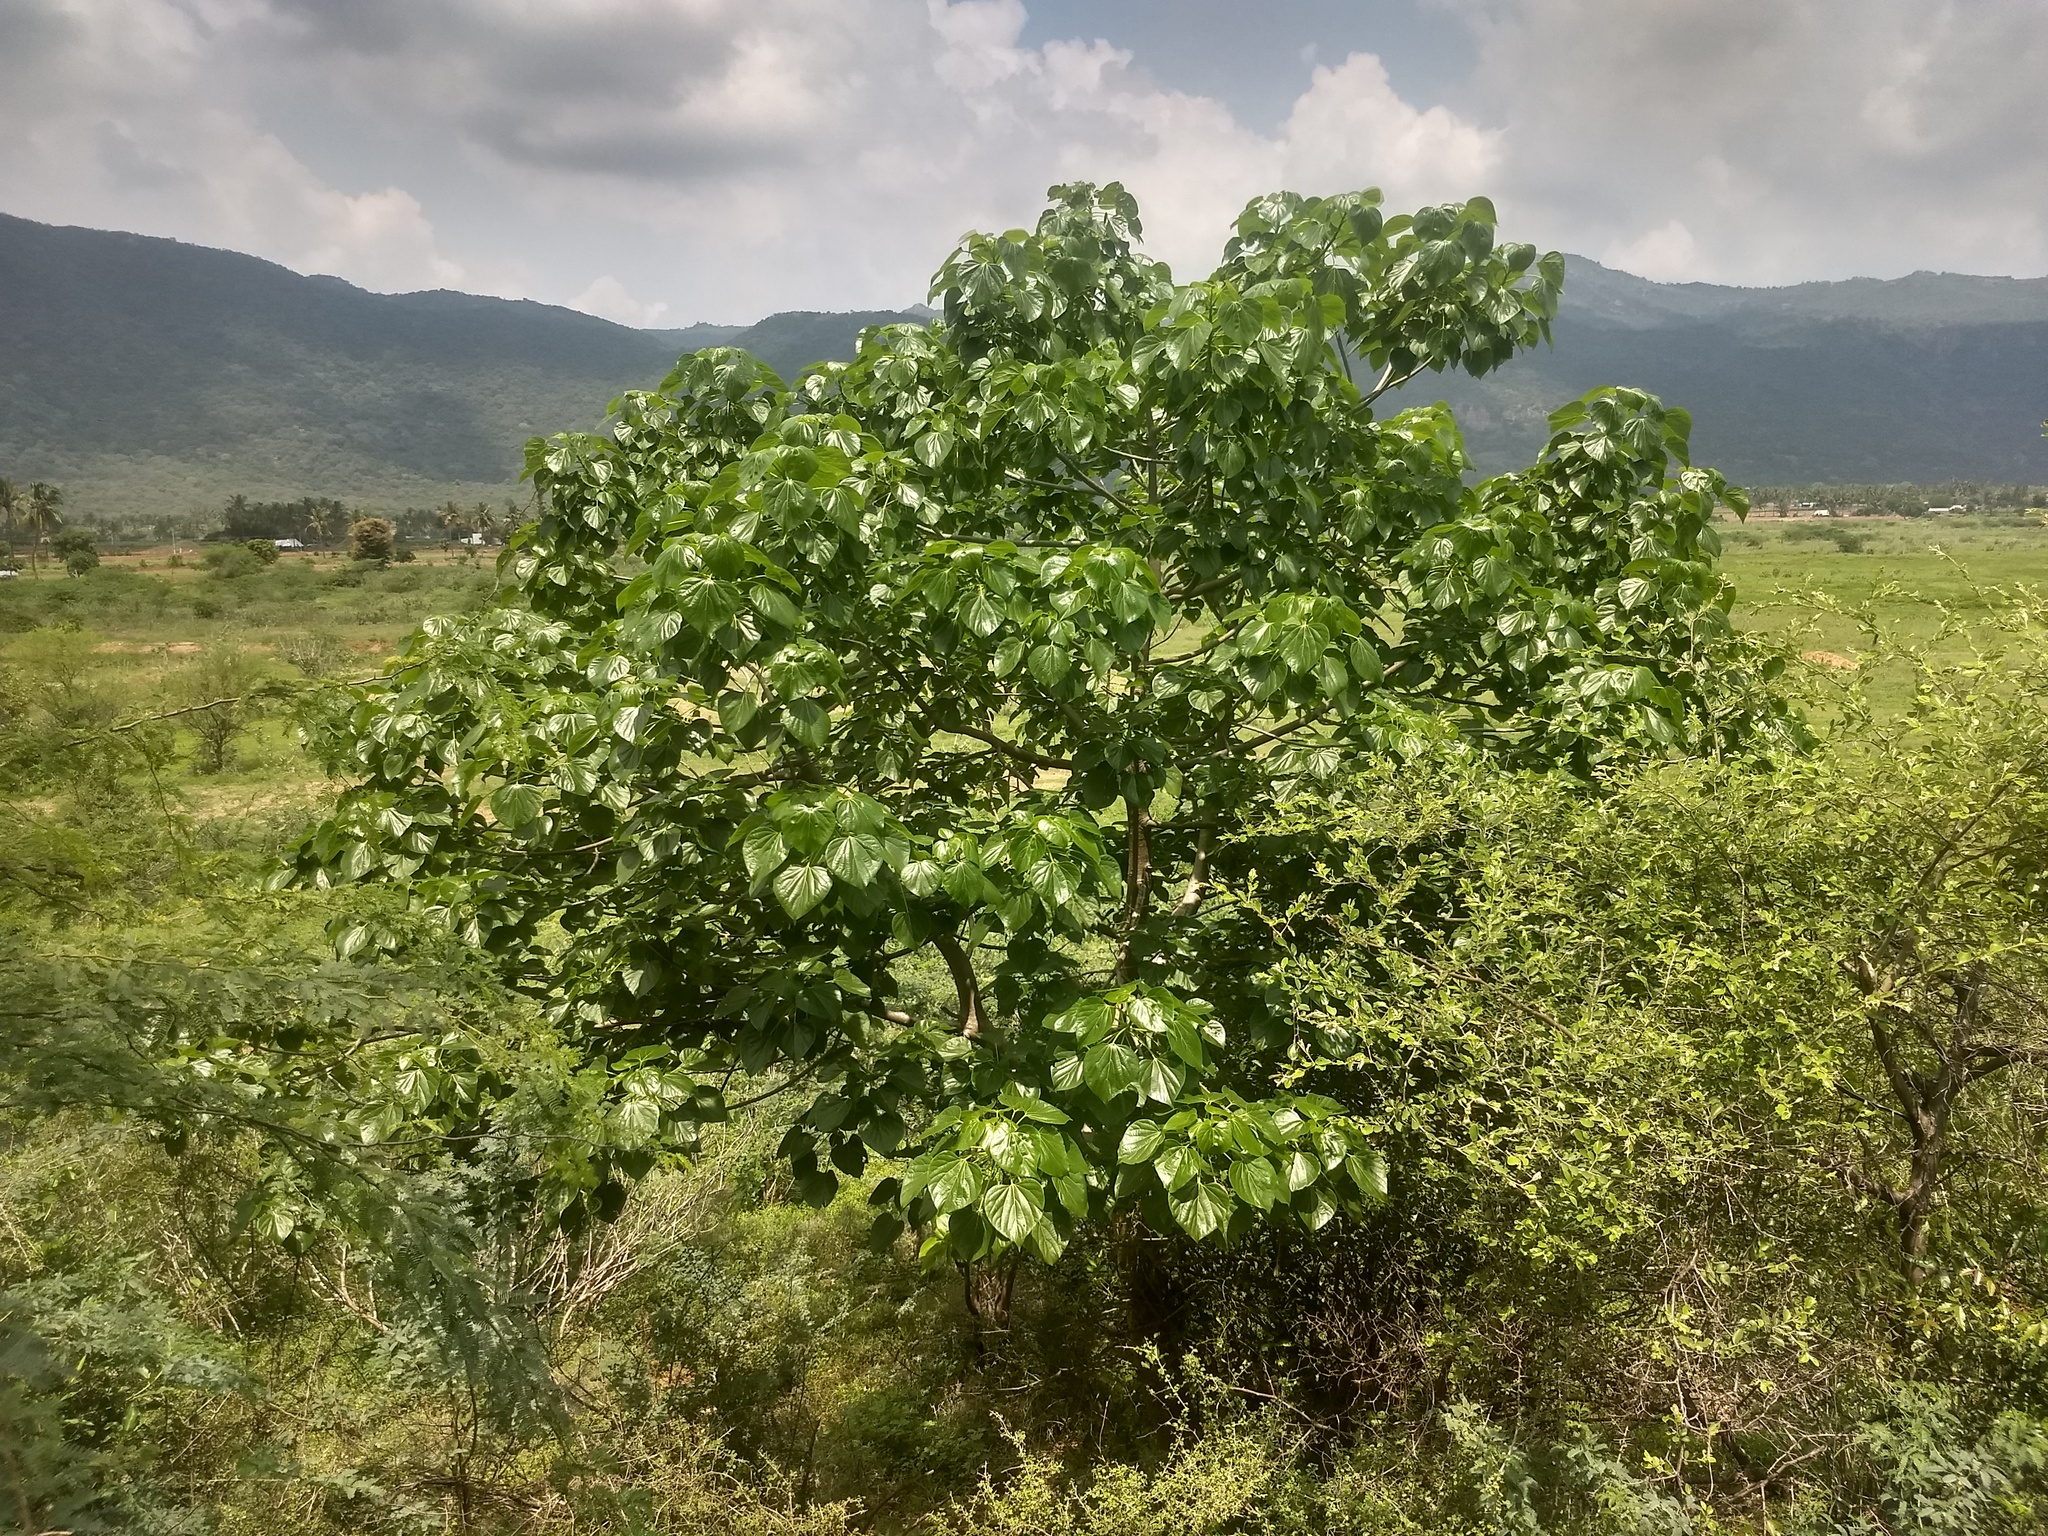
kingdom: Plantae
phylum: Tracheophyta
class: Magnoliopsida
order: Laurales
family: Hernandiaceae
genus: Gyrocarpus
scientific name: Gyrocarpus americanus
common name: Gyro damson
